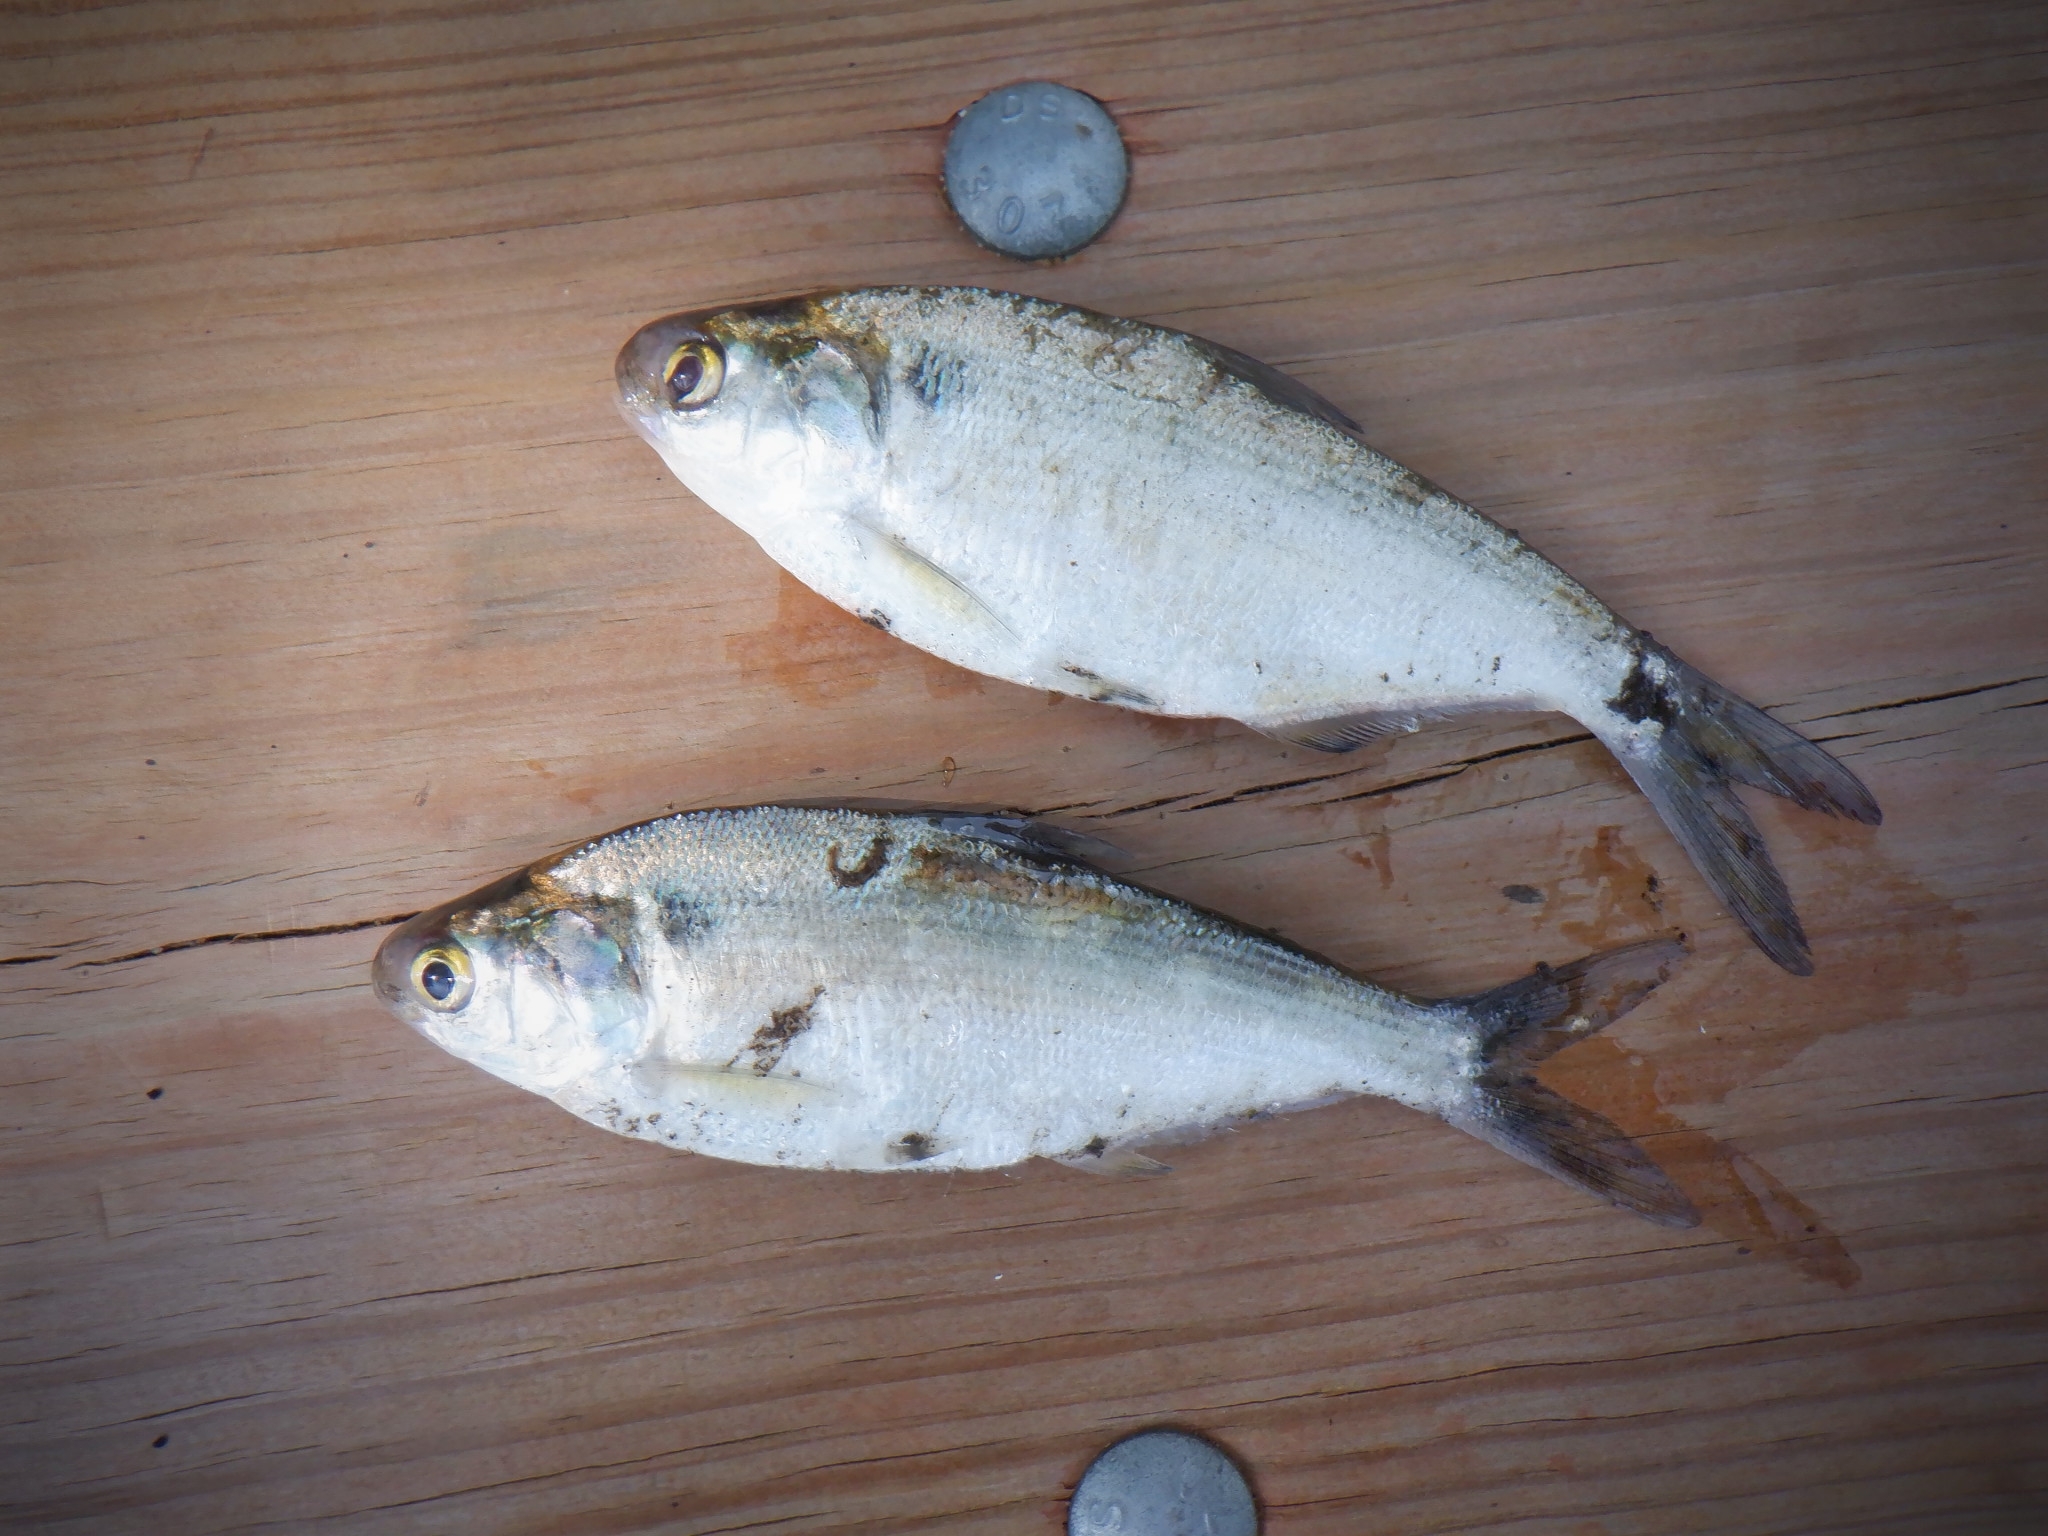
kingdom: Animalia
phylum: Chordata
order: Clupeiformes
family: Clupeidae
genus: Dorosoma
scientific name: Dorosoma cepedianum
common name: Gizzard shad
